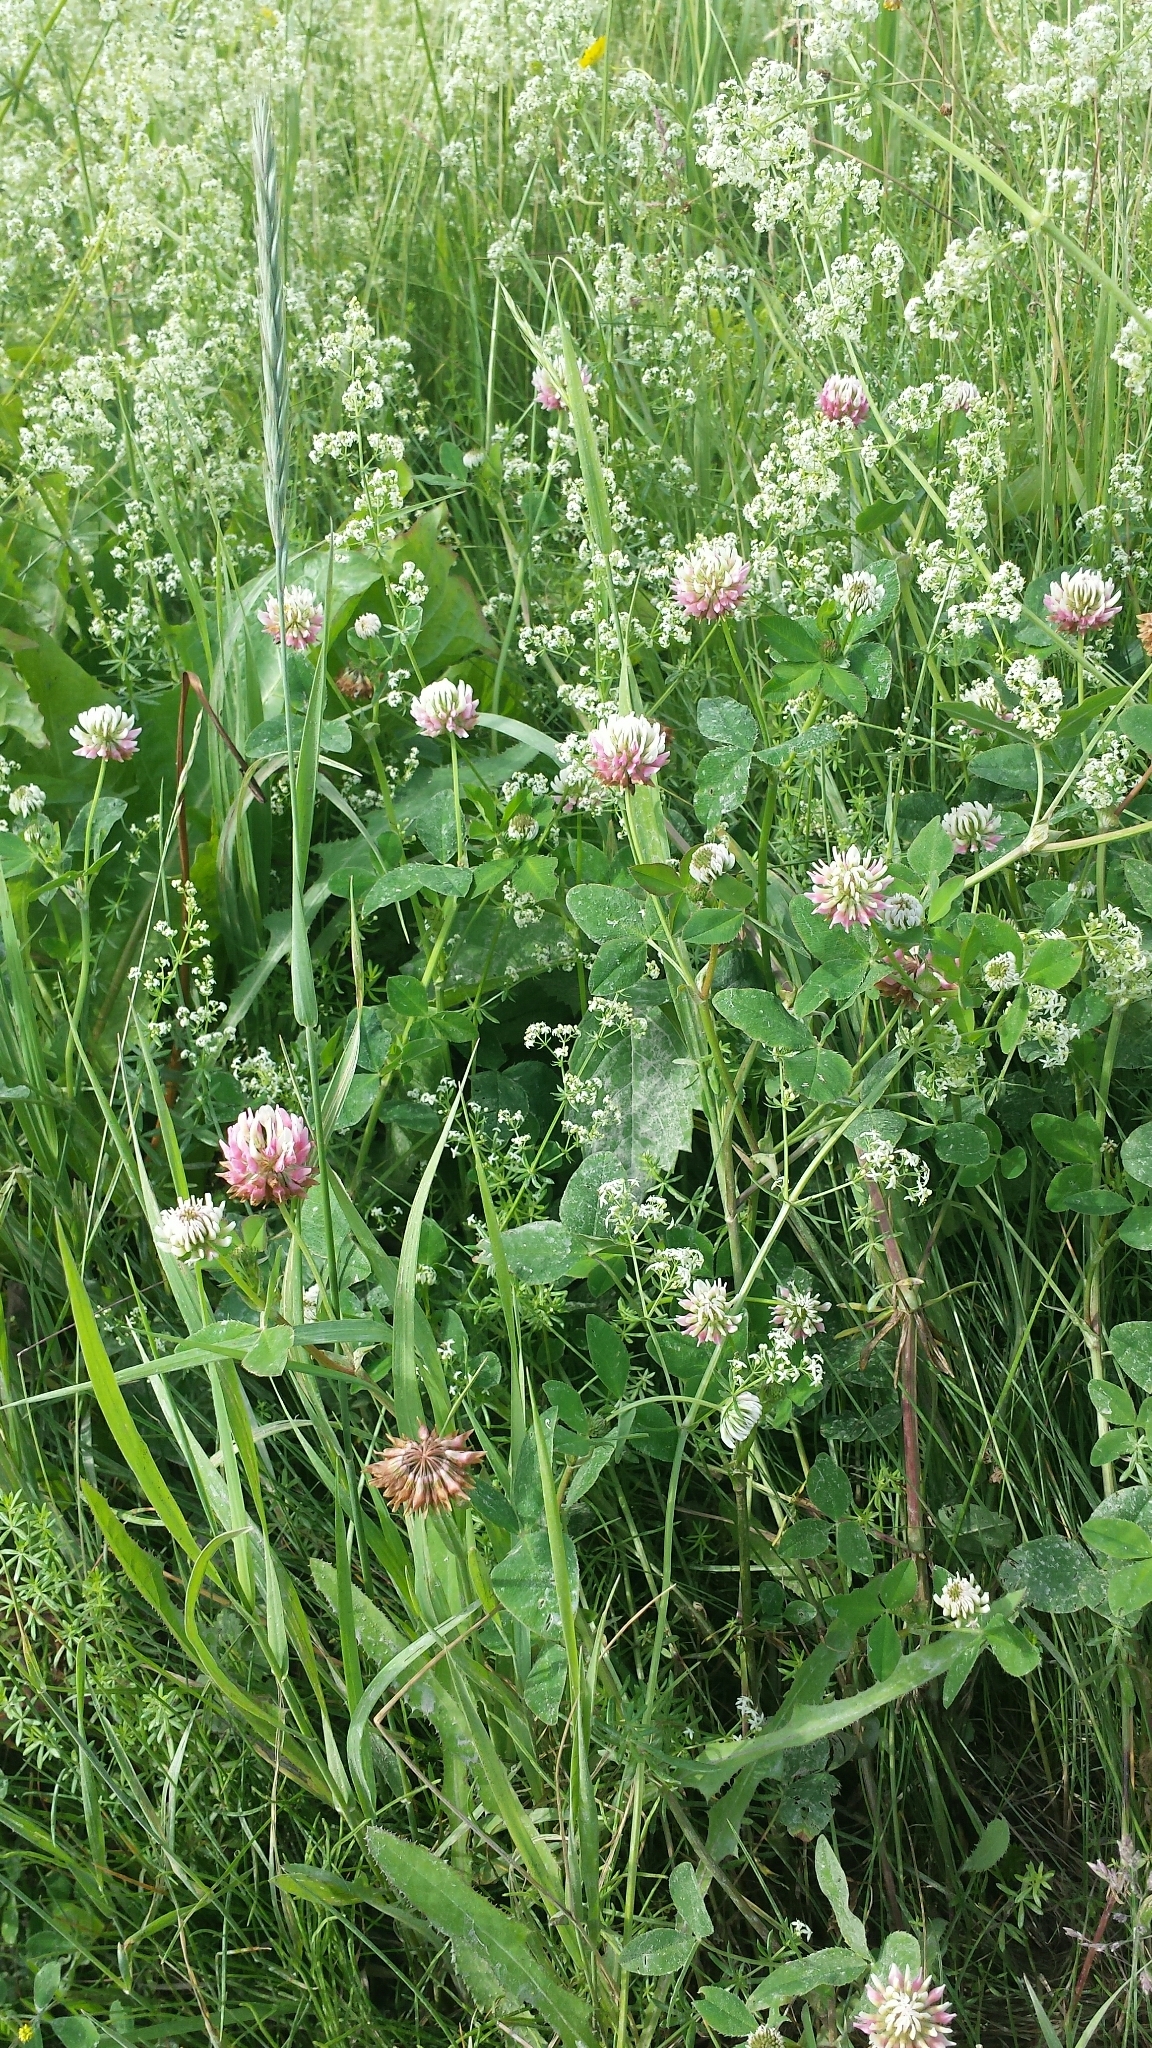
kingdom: Plantae
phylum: Tracheophyta
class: Magnoliopsida
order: Fabales
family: Fabaceae
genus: Trifolium
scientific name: Trifolium hybridum
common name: Alsike clover
